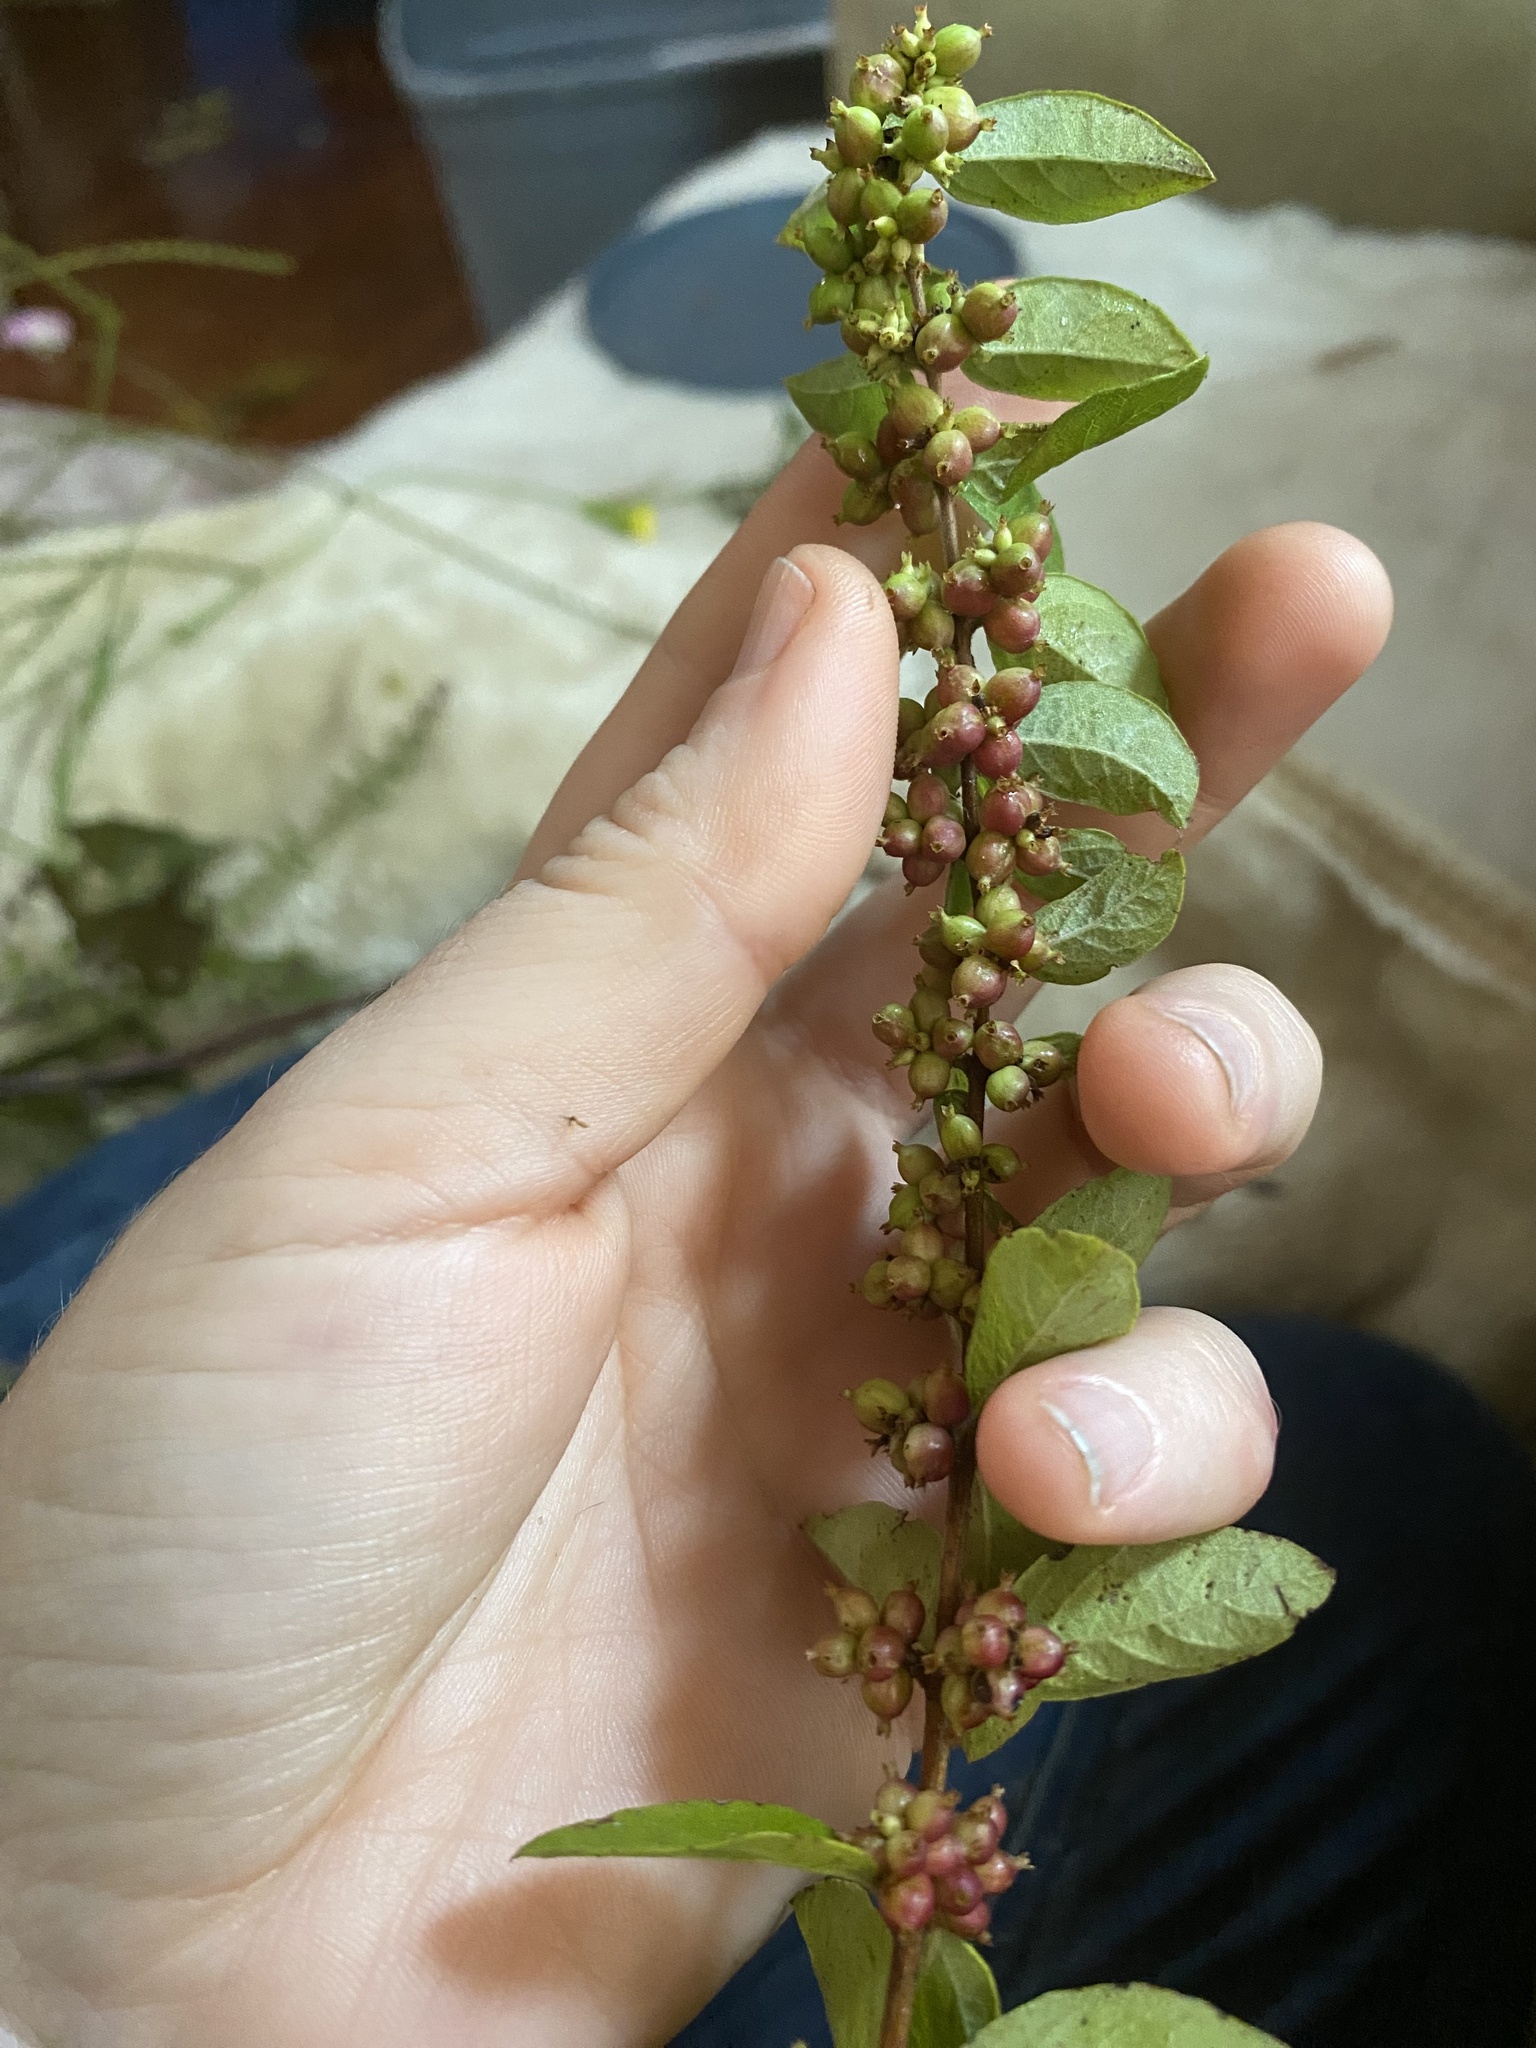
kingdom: Plantae
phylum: Tracheophyta
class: Magnoliopsida
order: Dipsacales
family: Caprifoliaceae
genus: Symphoricarpos
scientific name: Symphoricarpos orbiculatus
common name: Coralberry
